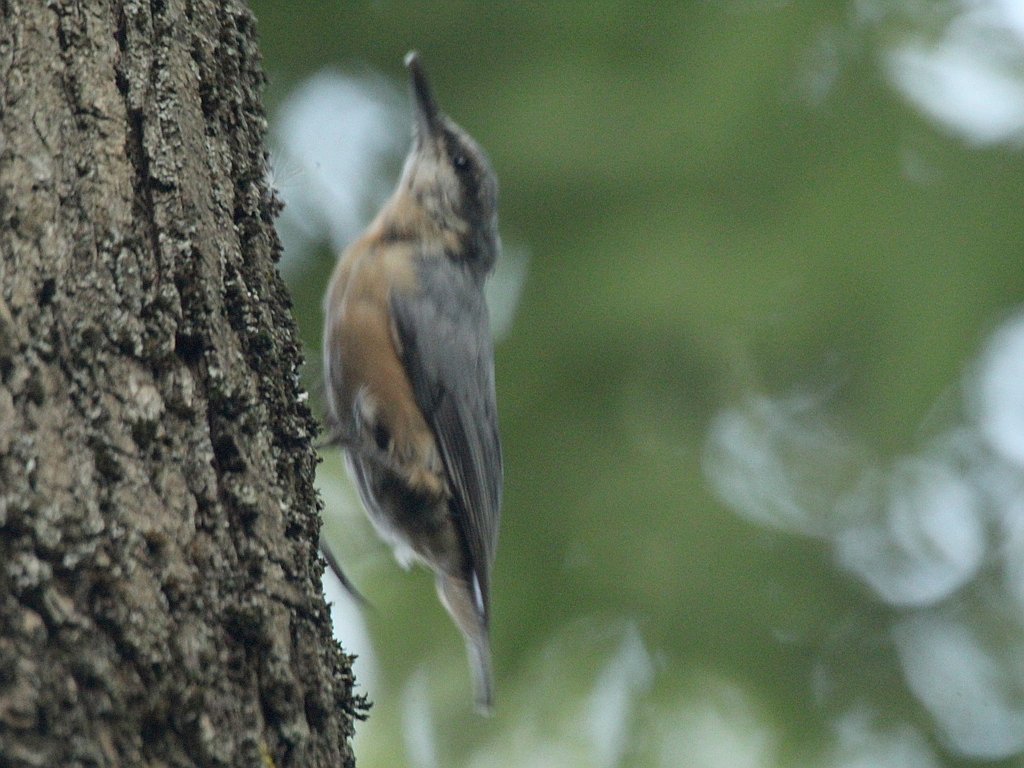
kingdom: Animalia
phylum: Chordata
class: Aves
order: Passeriformes
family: Sittidae
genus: Sitta
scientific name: Sitta europaea
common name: Eurasian nuthatch
